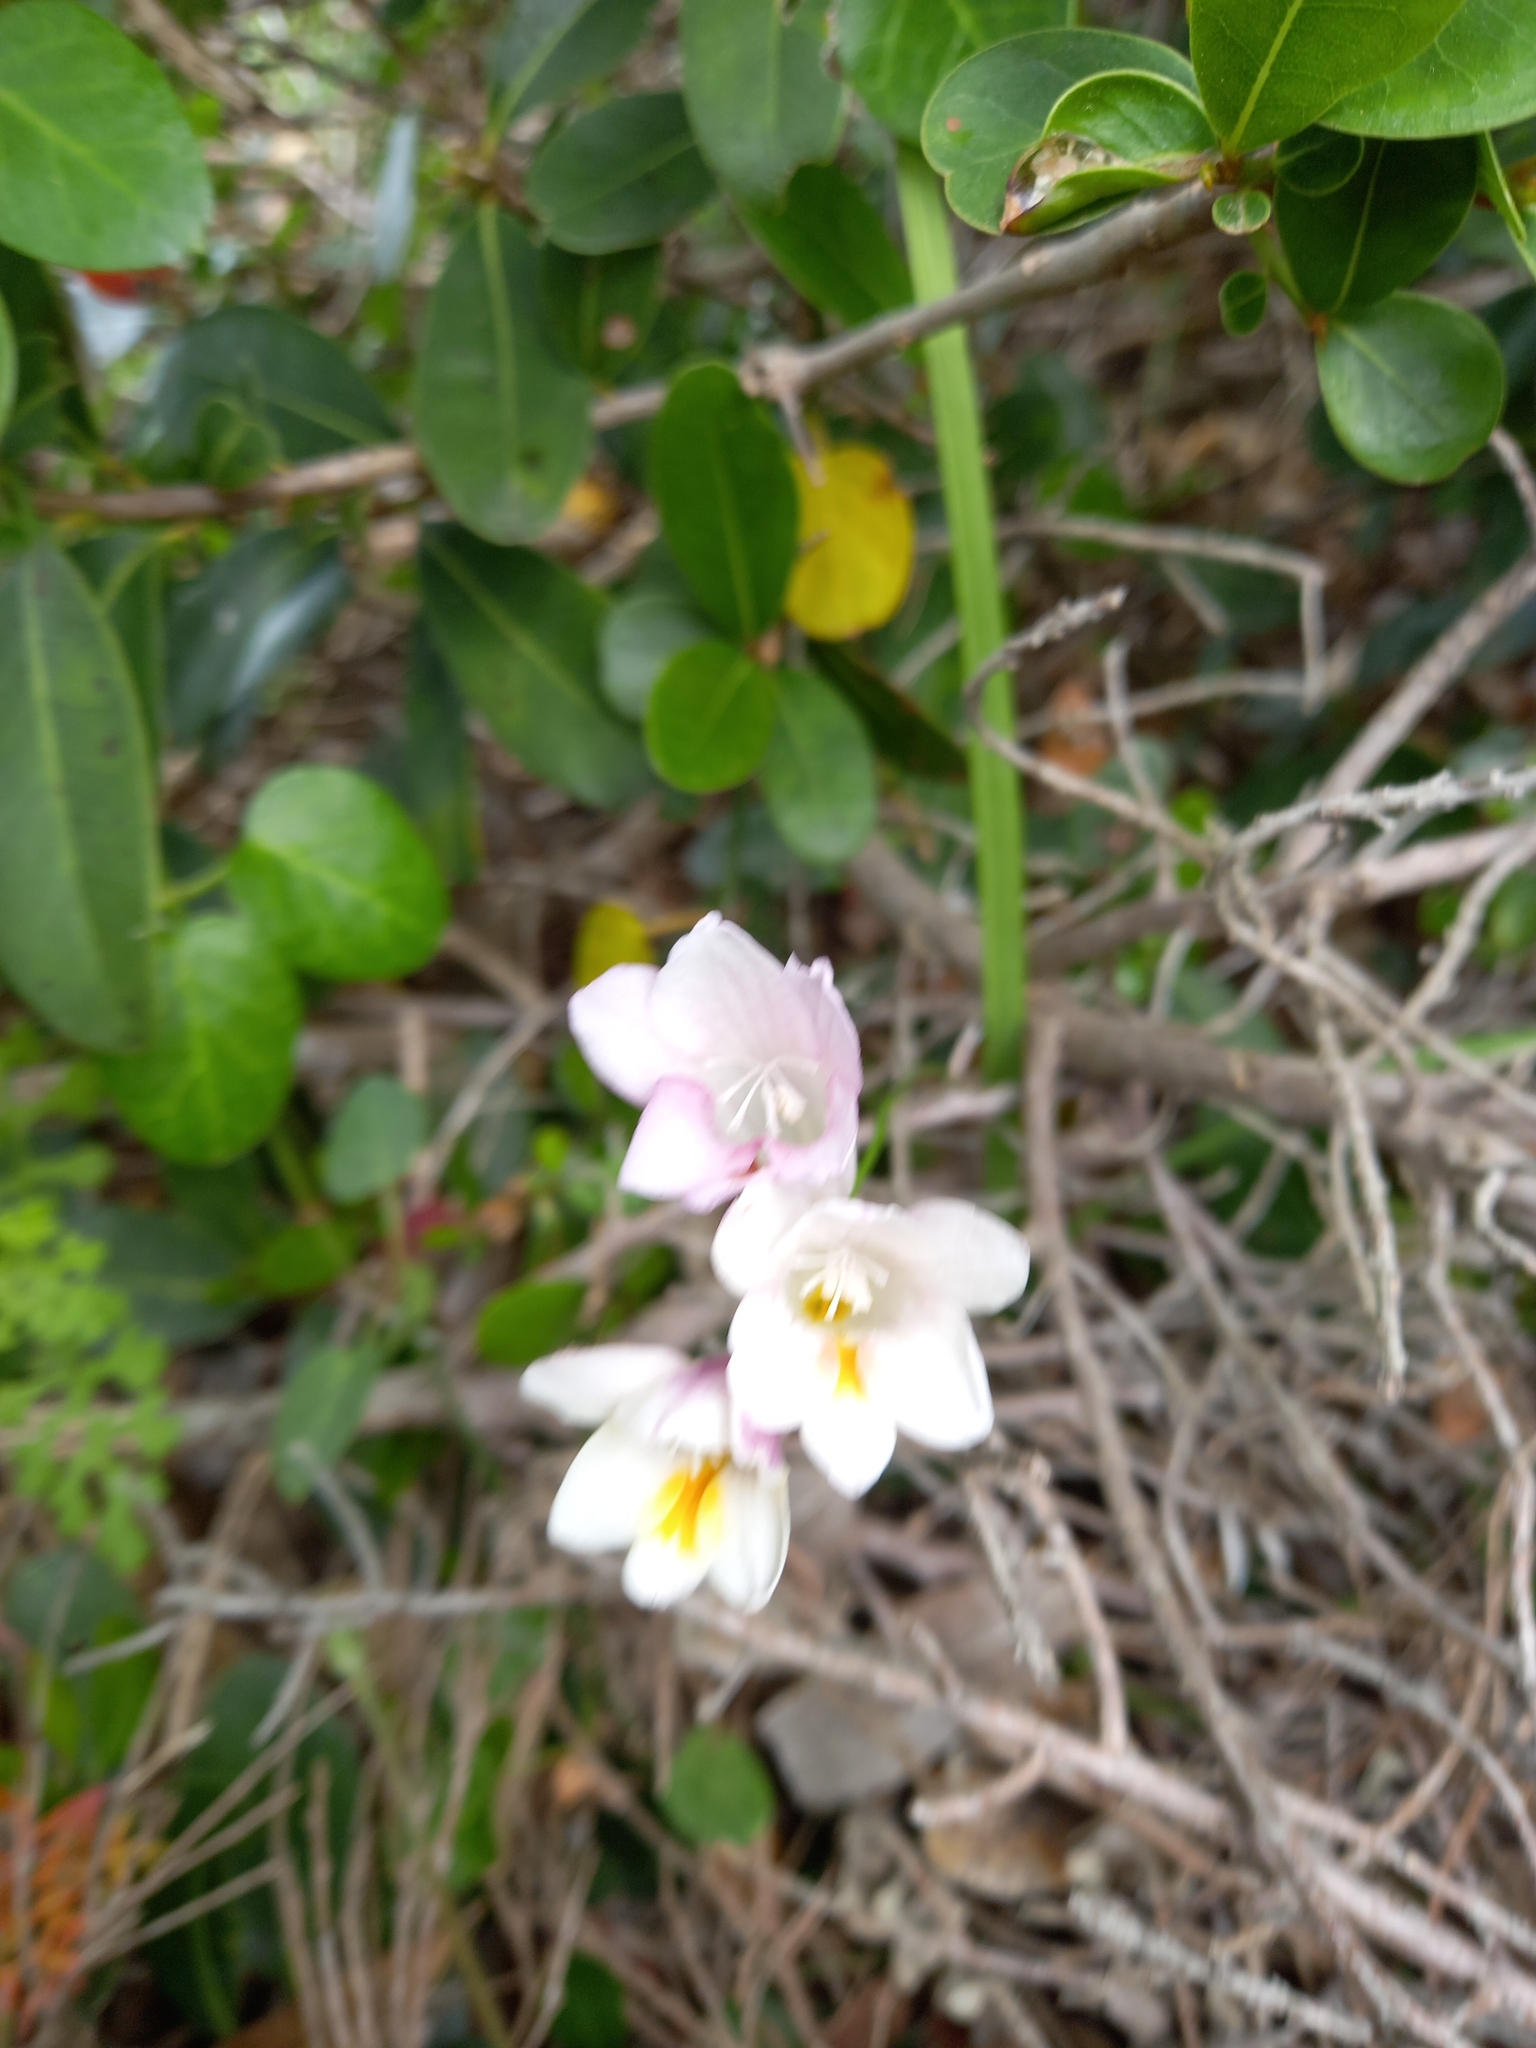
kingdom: Plantae
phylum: Tracheophyta
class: Liliopsida
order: Asparagales
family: Iridaceae
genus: Freesia
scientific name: Freesia leichtlinii
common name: Freesia
